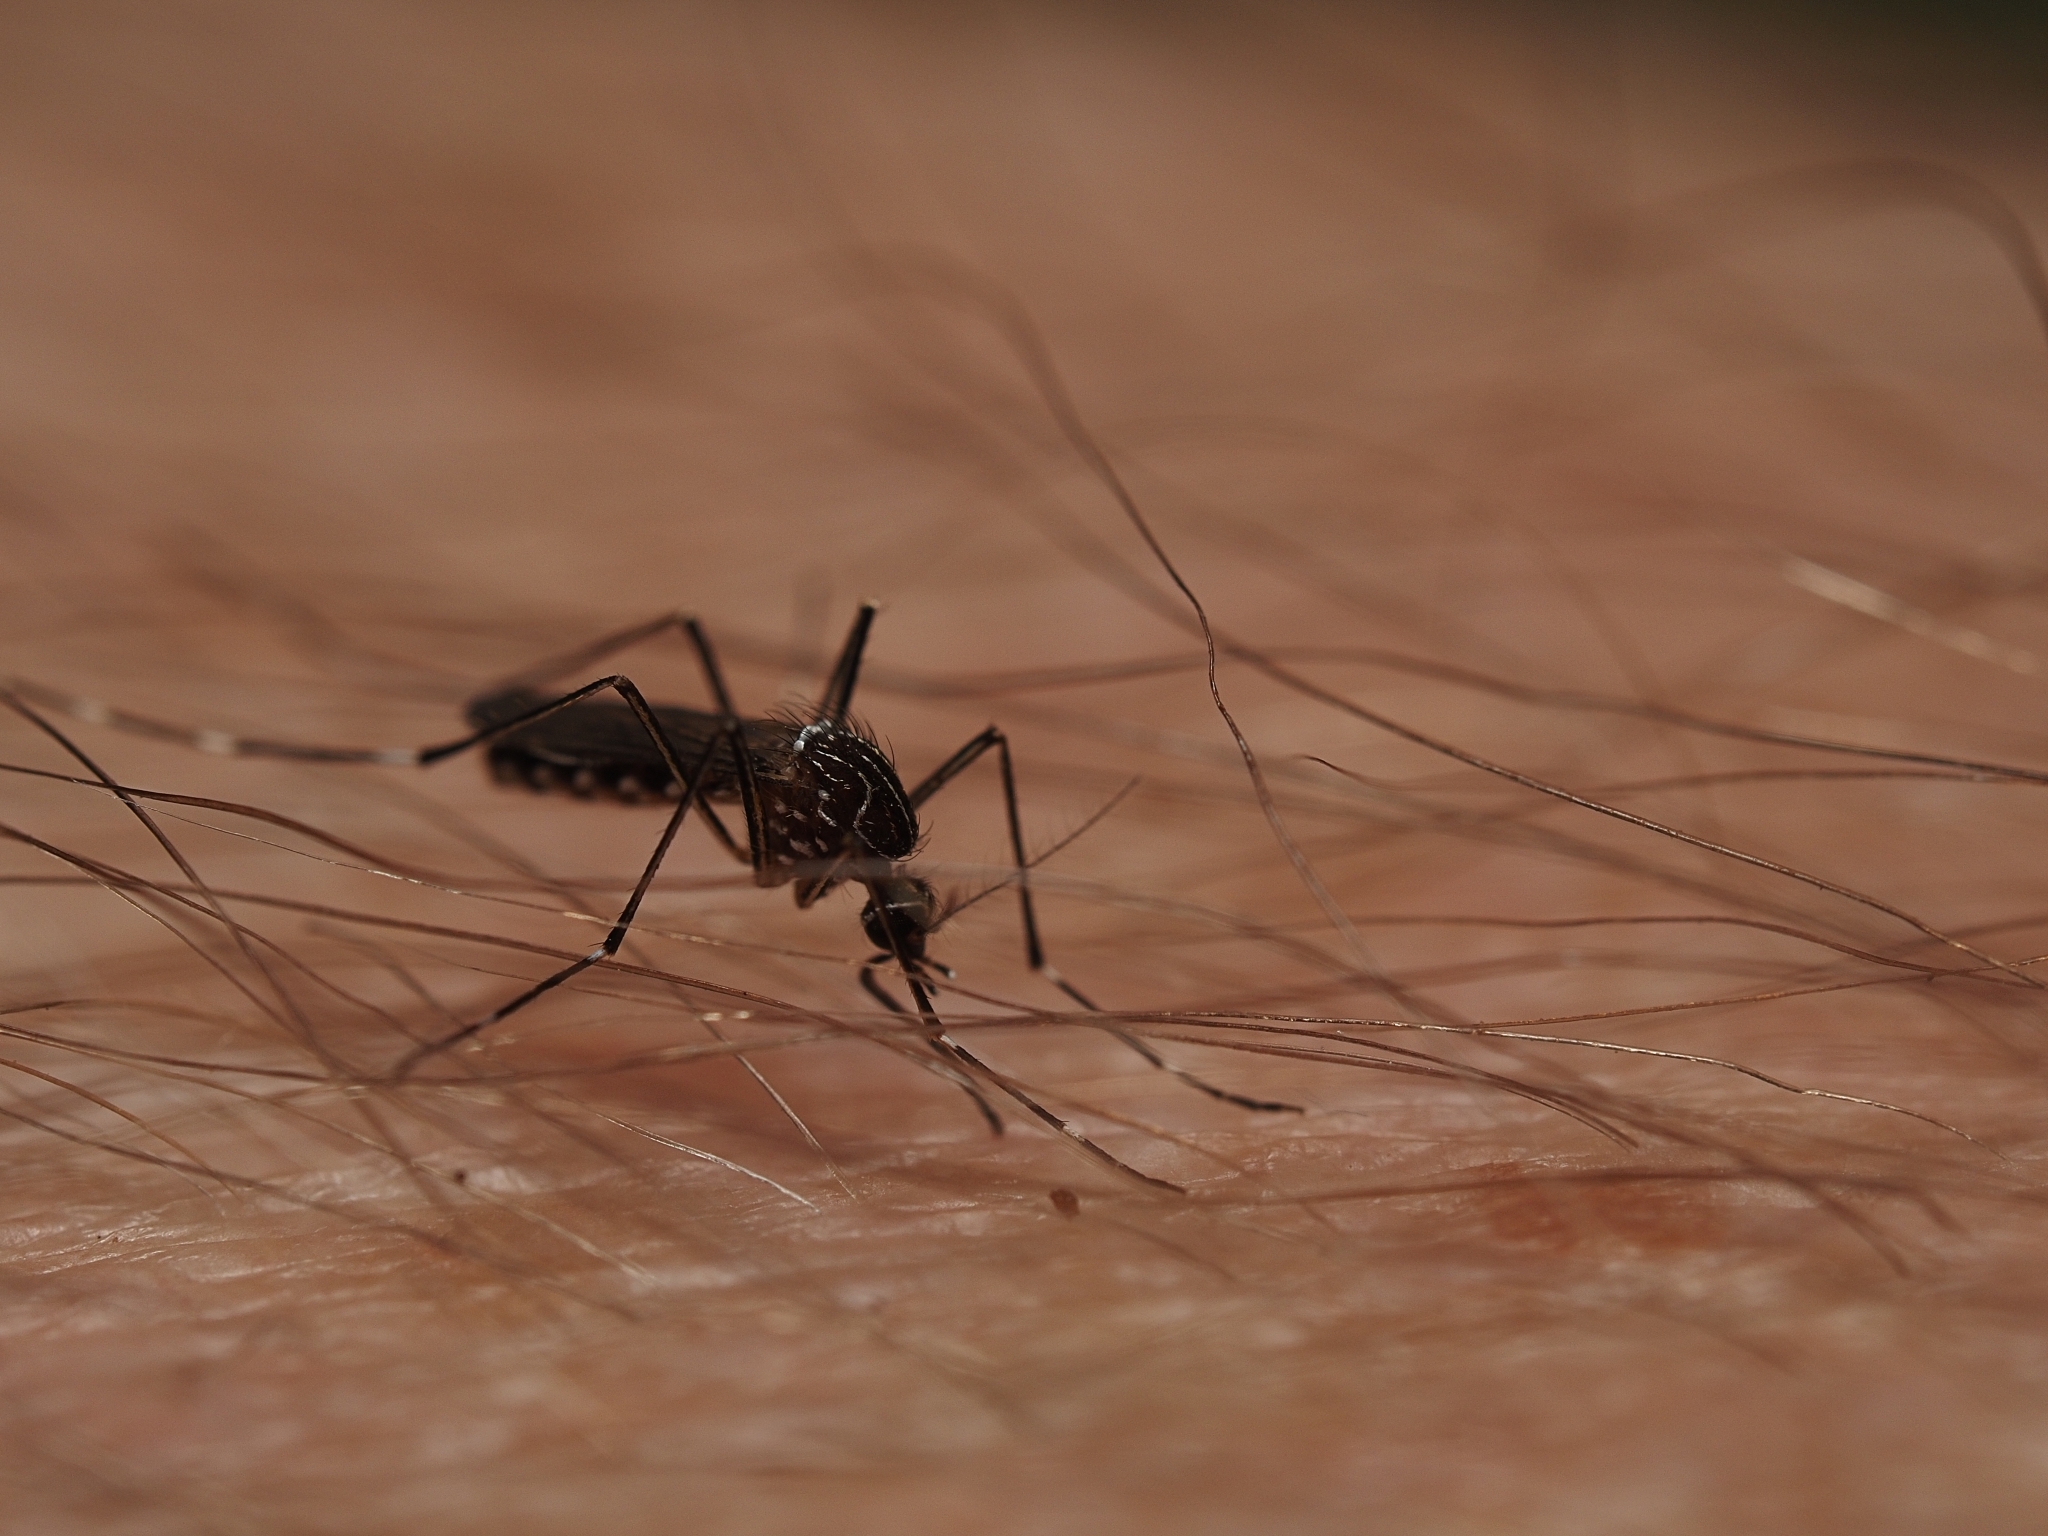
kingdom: Animalia
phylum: Arthropoda
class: Insecta
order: Diptera
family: Culicidae
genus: Aedes
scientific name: Aedes notoscriptus
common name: Australian backyard mosquito
